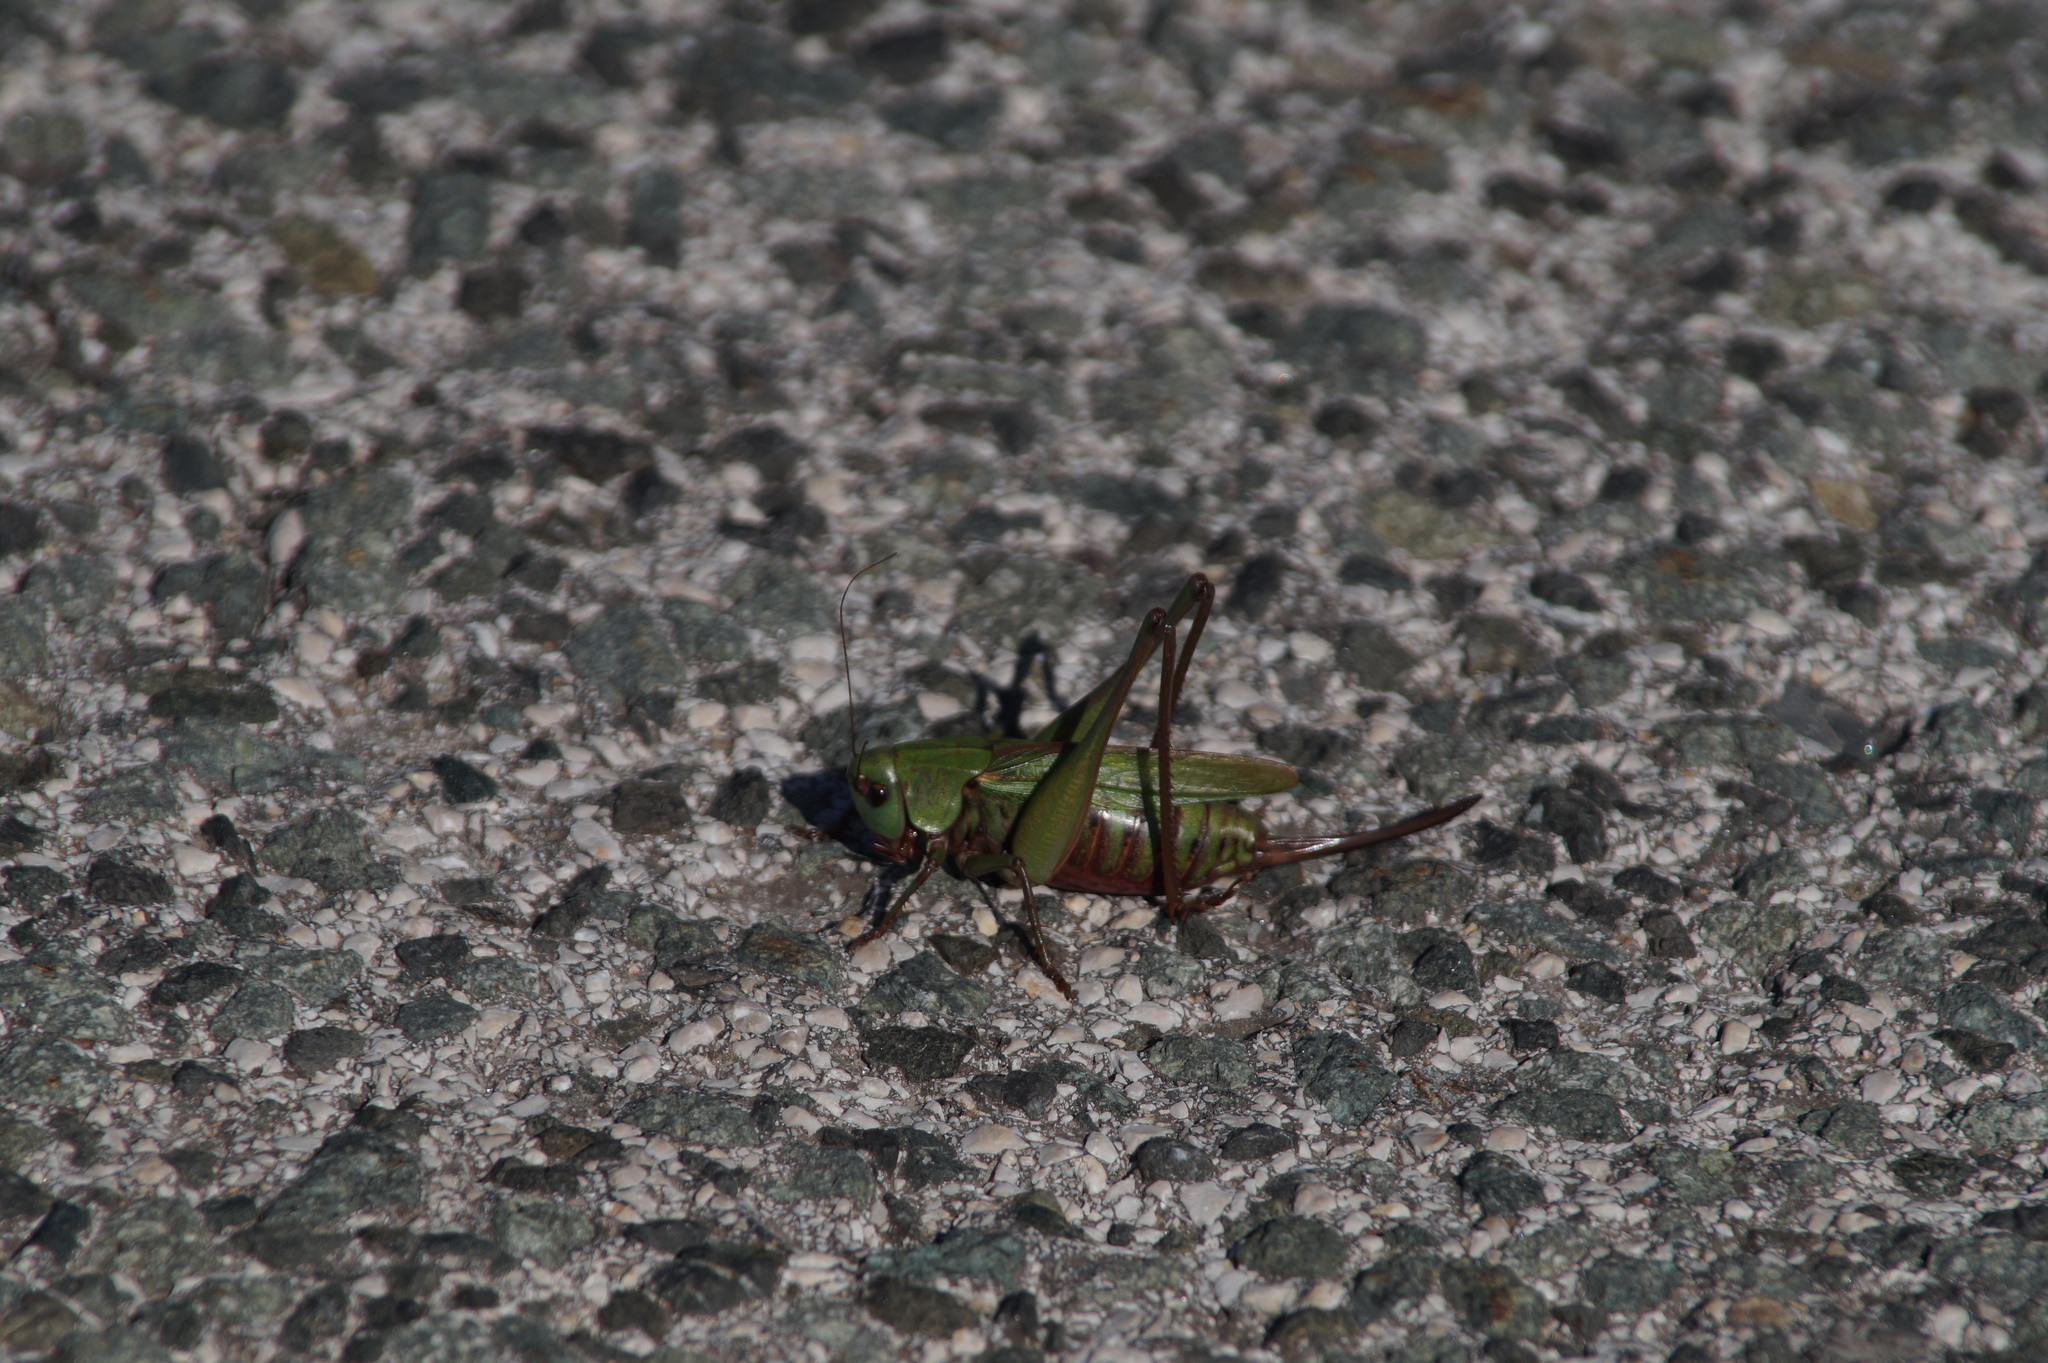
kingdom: Animalia
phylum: Arthropoda
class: Insecta
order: Orthoptera
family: Tettigoniidae
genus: Decticus
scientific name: Decticus verrucivorus
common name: Wart-biter
